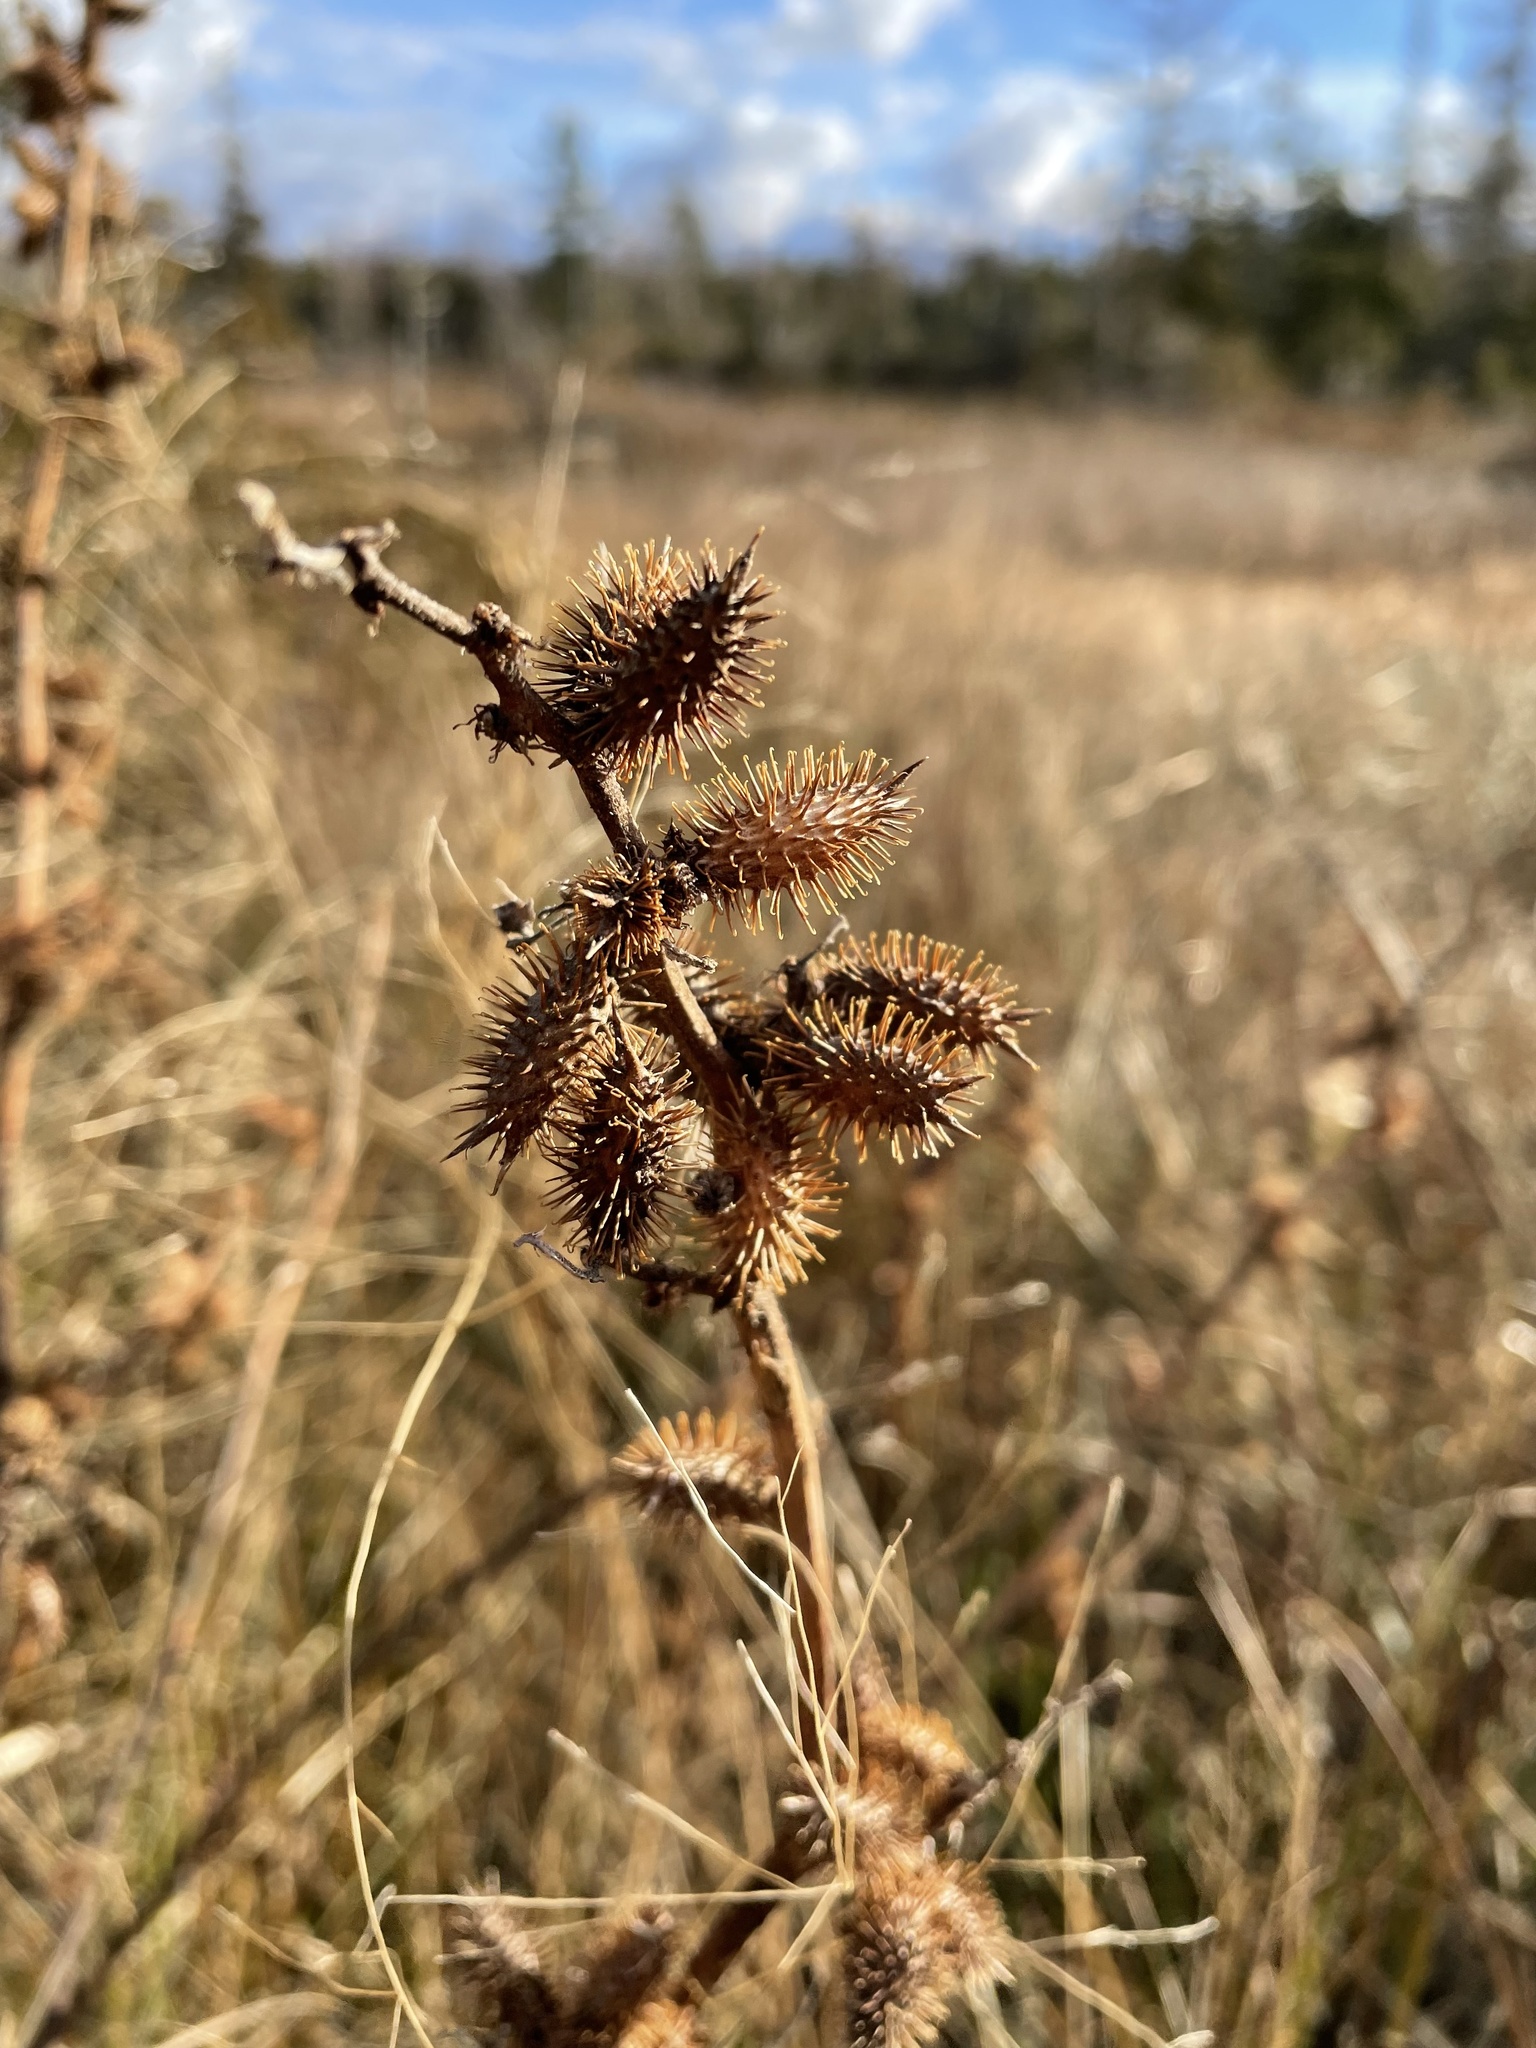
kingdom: Plantae
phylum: Tracheophyta
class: Magnoliopsida
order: Asterales
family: Asteraceae
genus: Xanthium
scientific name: Xanthium strumarium
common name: Rough cocklebur
